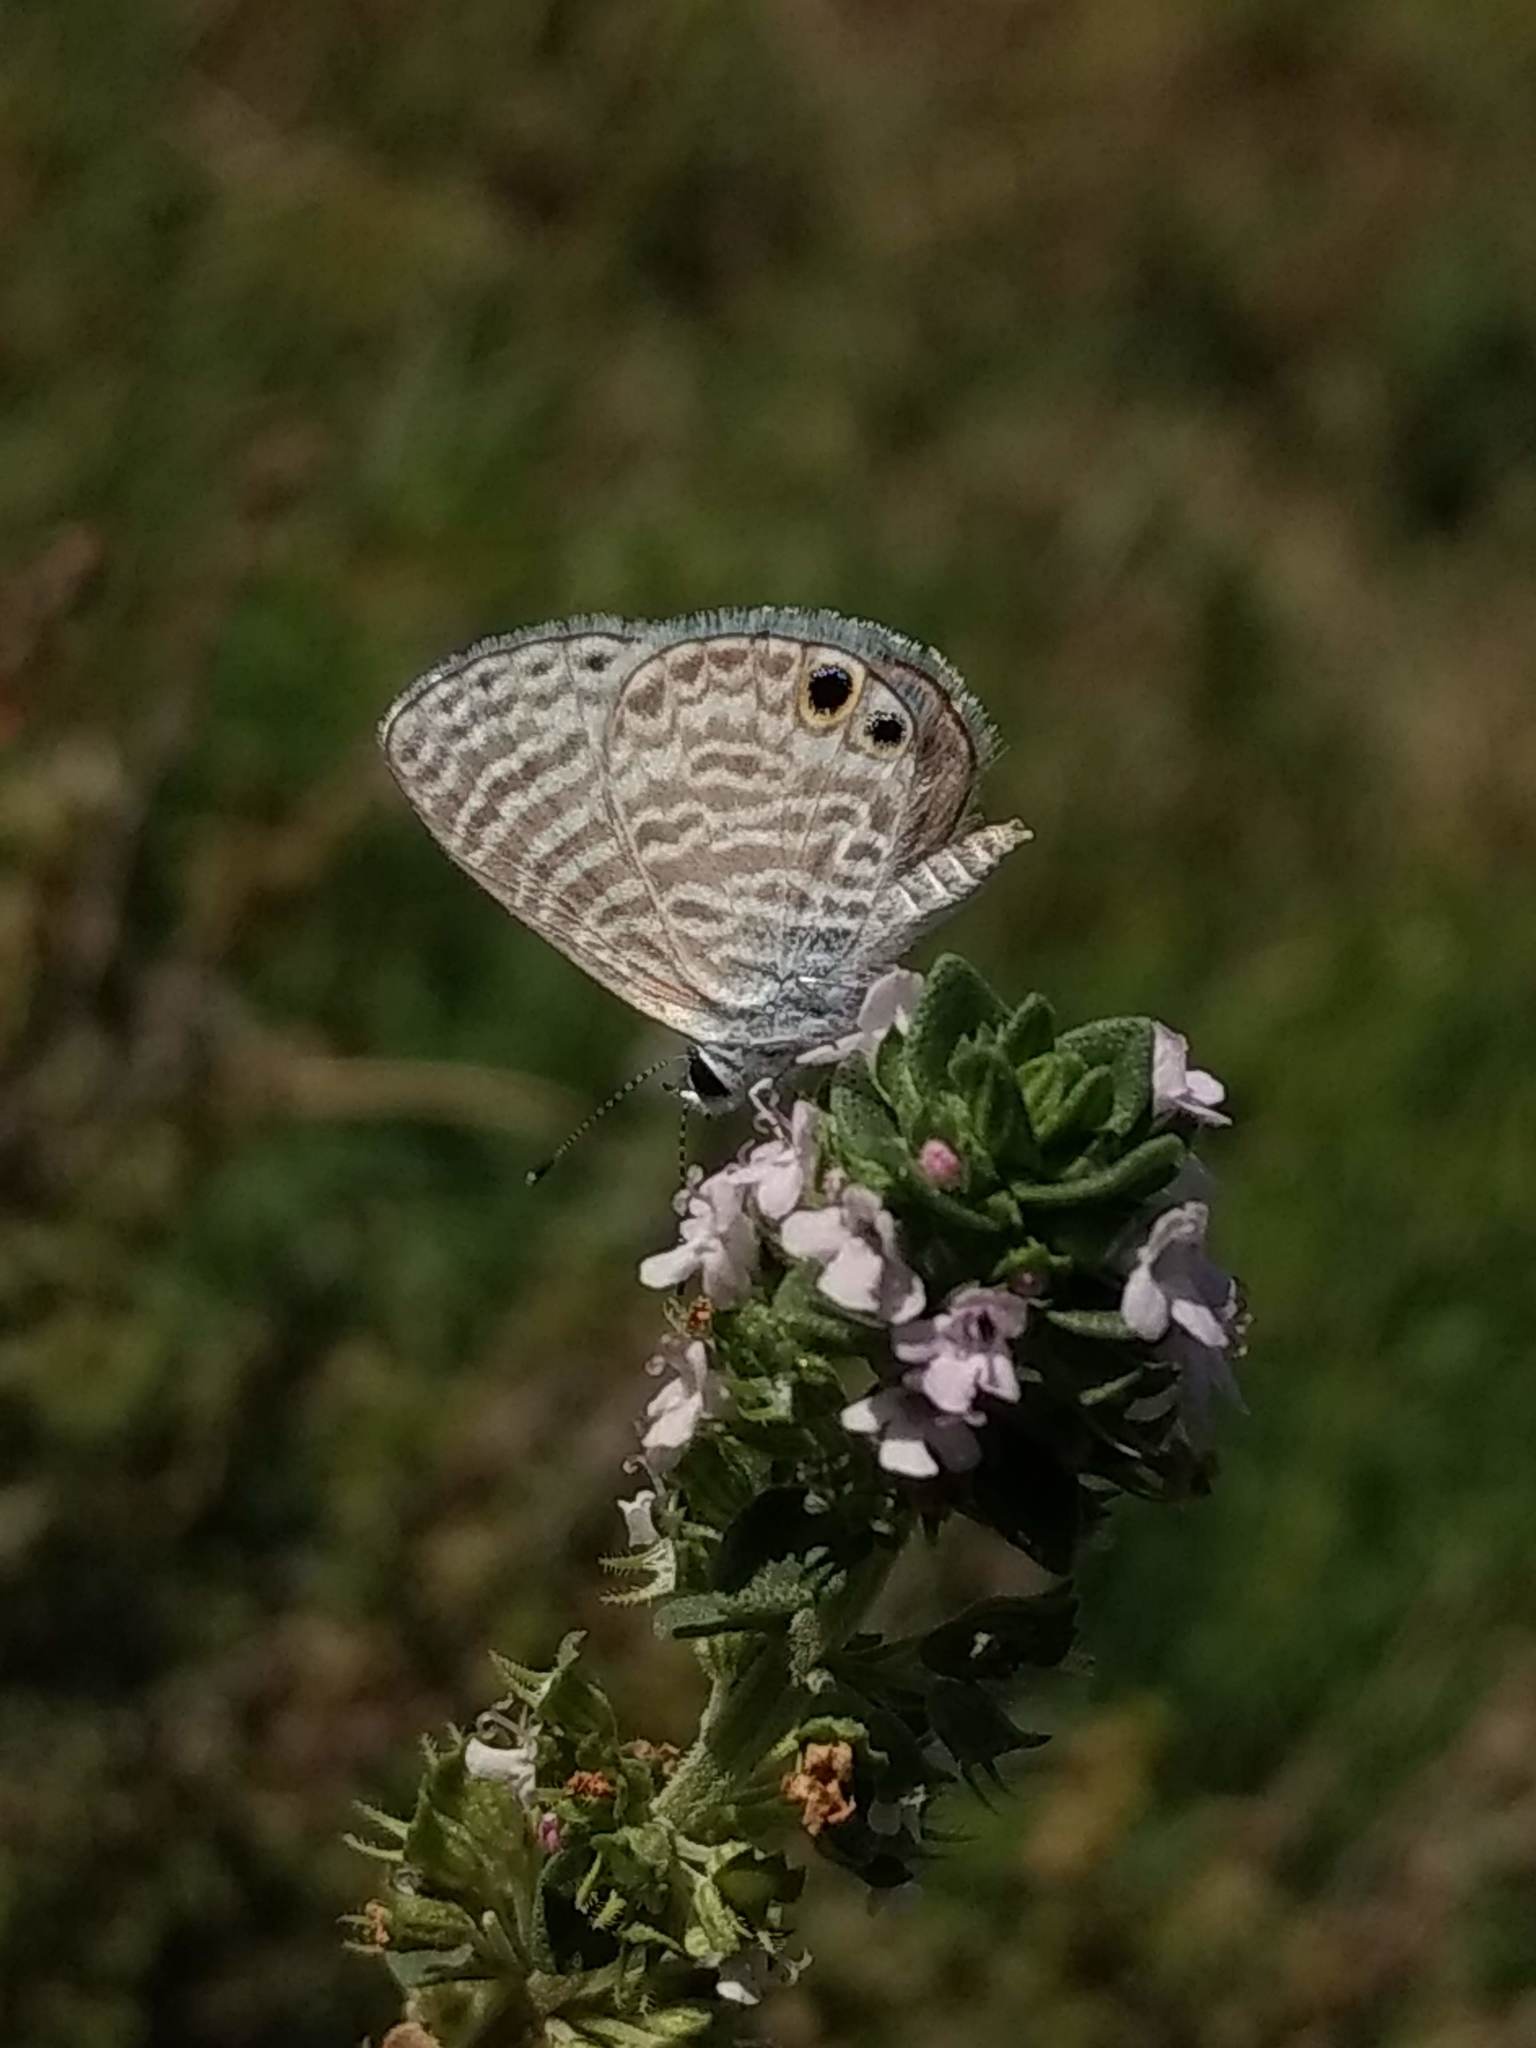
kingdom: Animalia
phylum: Arthropoda
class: Insecta
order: Lepidoptera
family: Lycaenidae
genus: Leptotes
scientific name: Leptotes marina
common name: Marine blue
